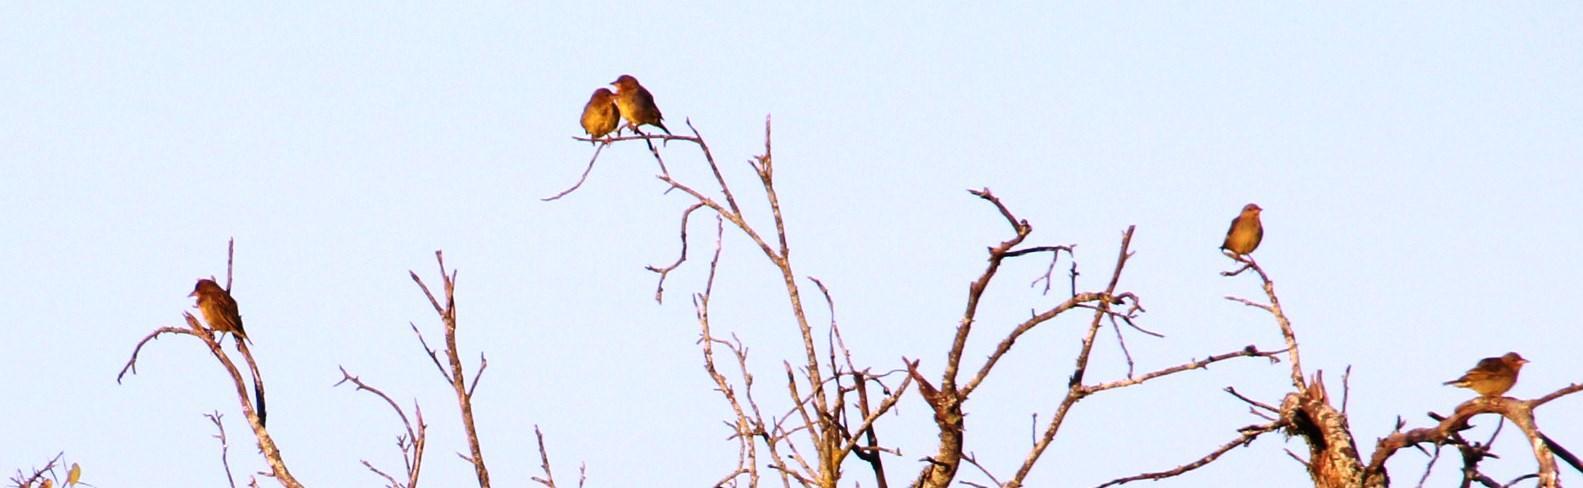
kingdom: Animalia
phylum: Chordata
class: Aves
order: Passeriformes
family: Ploceidae
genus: Ploceus
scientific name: Ploceus capensis
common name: Cape weaver
